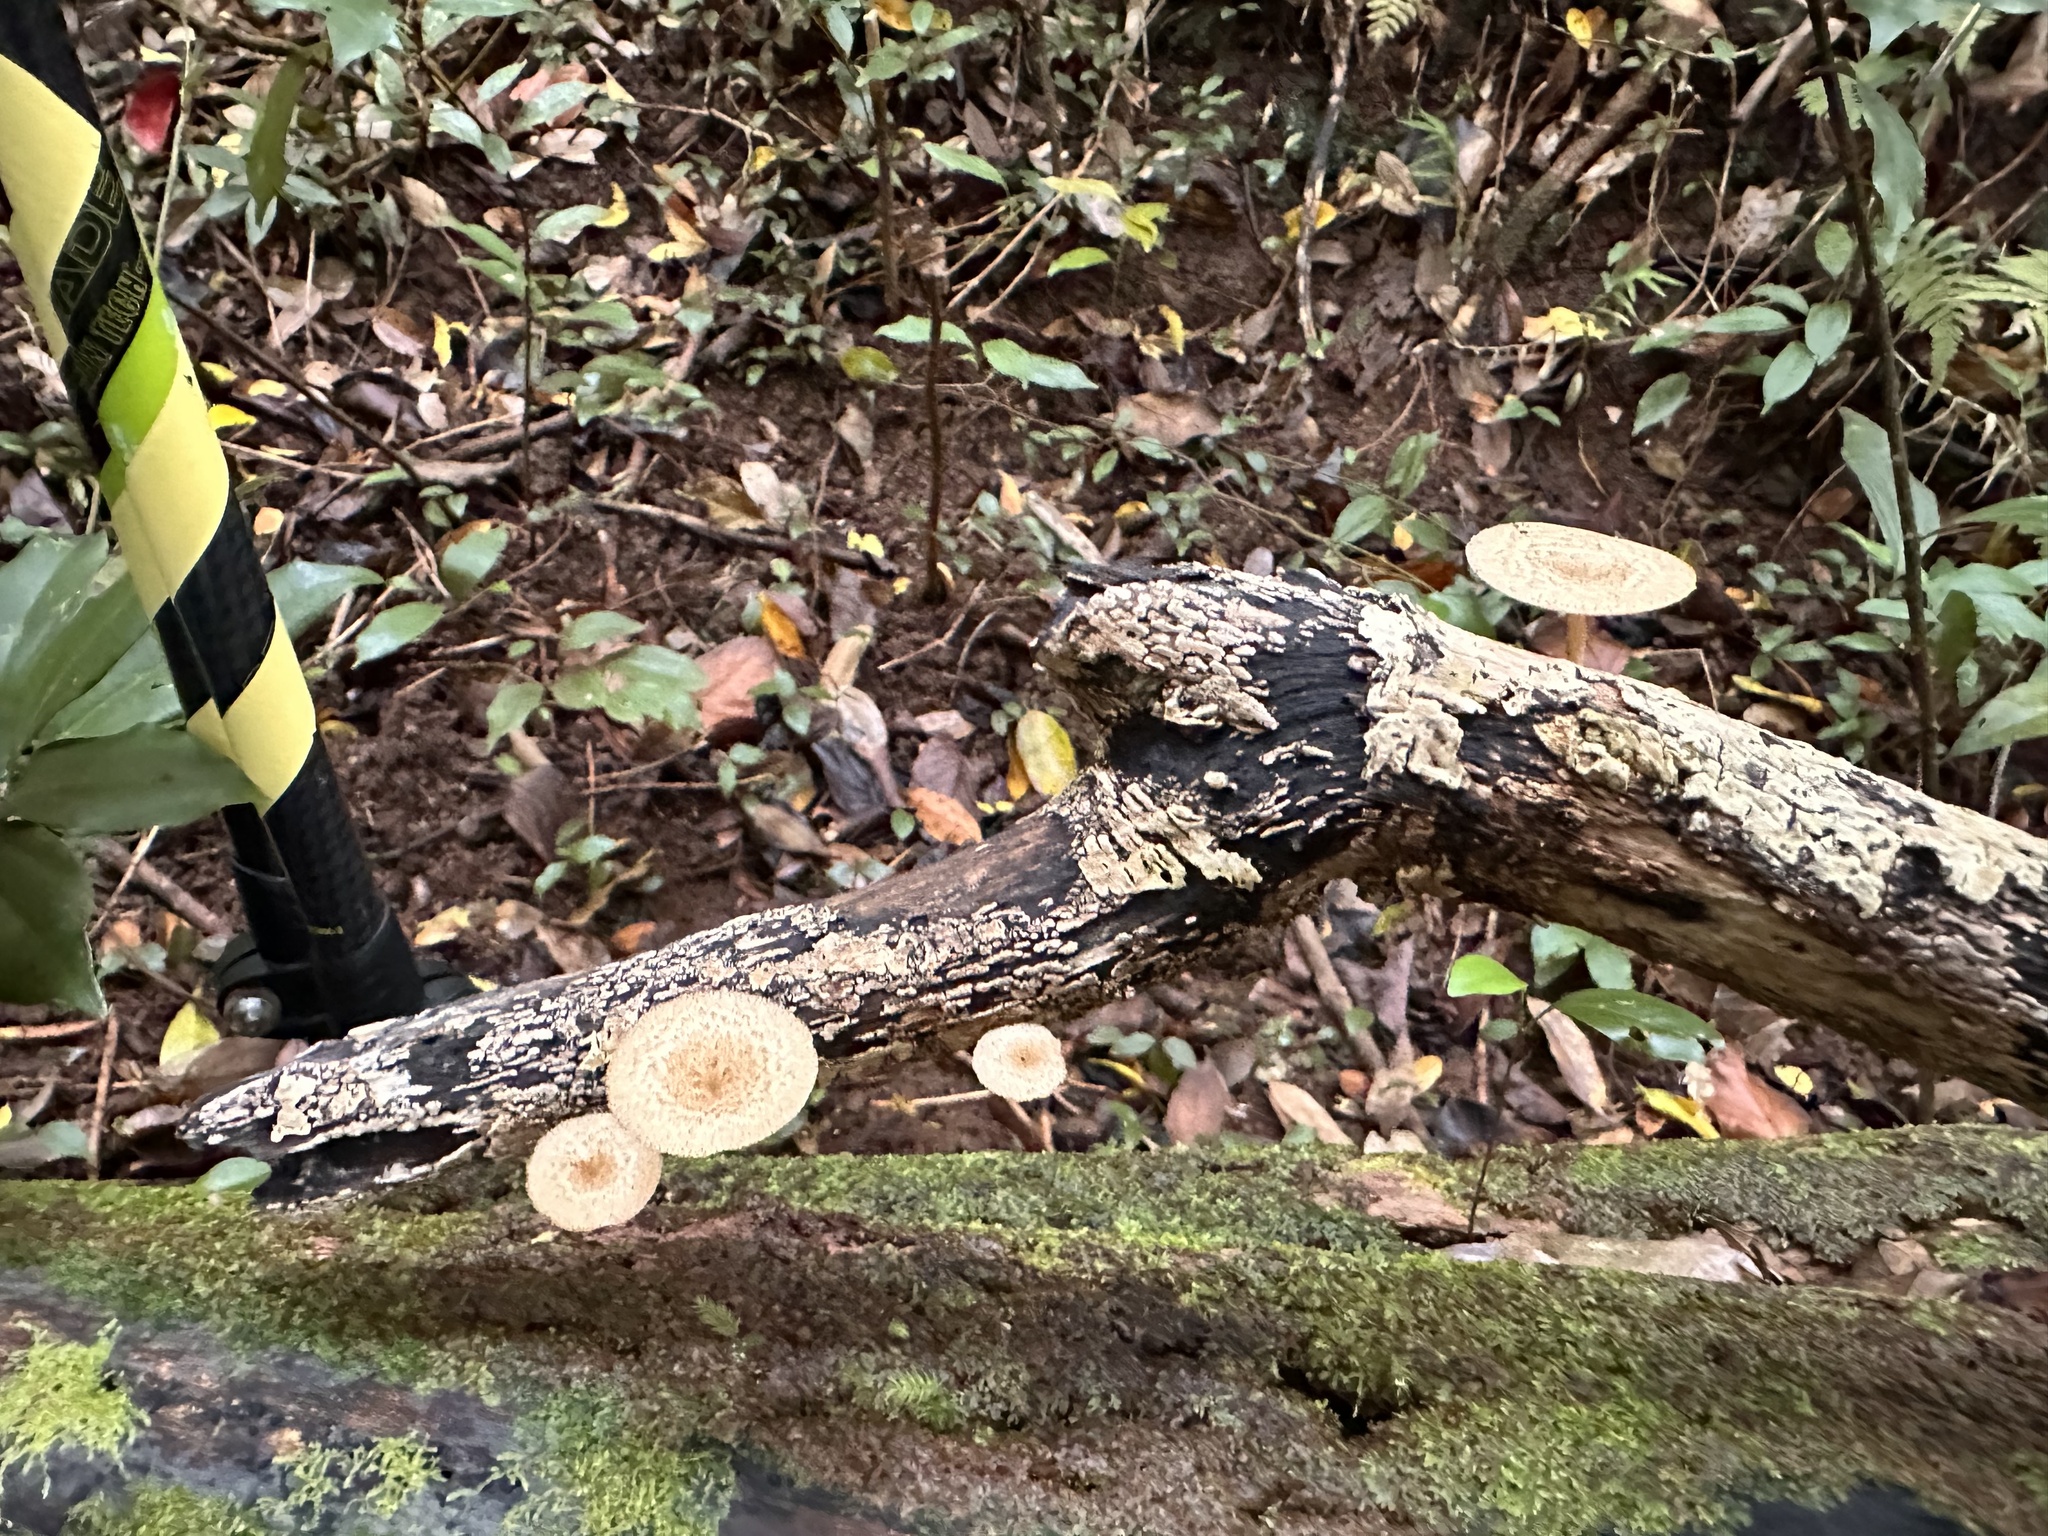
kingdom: Fungi
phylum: Basidiomycota
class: Agaricomycetes
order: Polyporales
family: Polyporaceae
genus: Lentinus
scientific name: Lentinus arcularius
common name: Spring polypore
